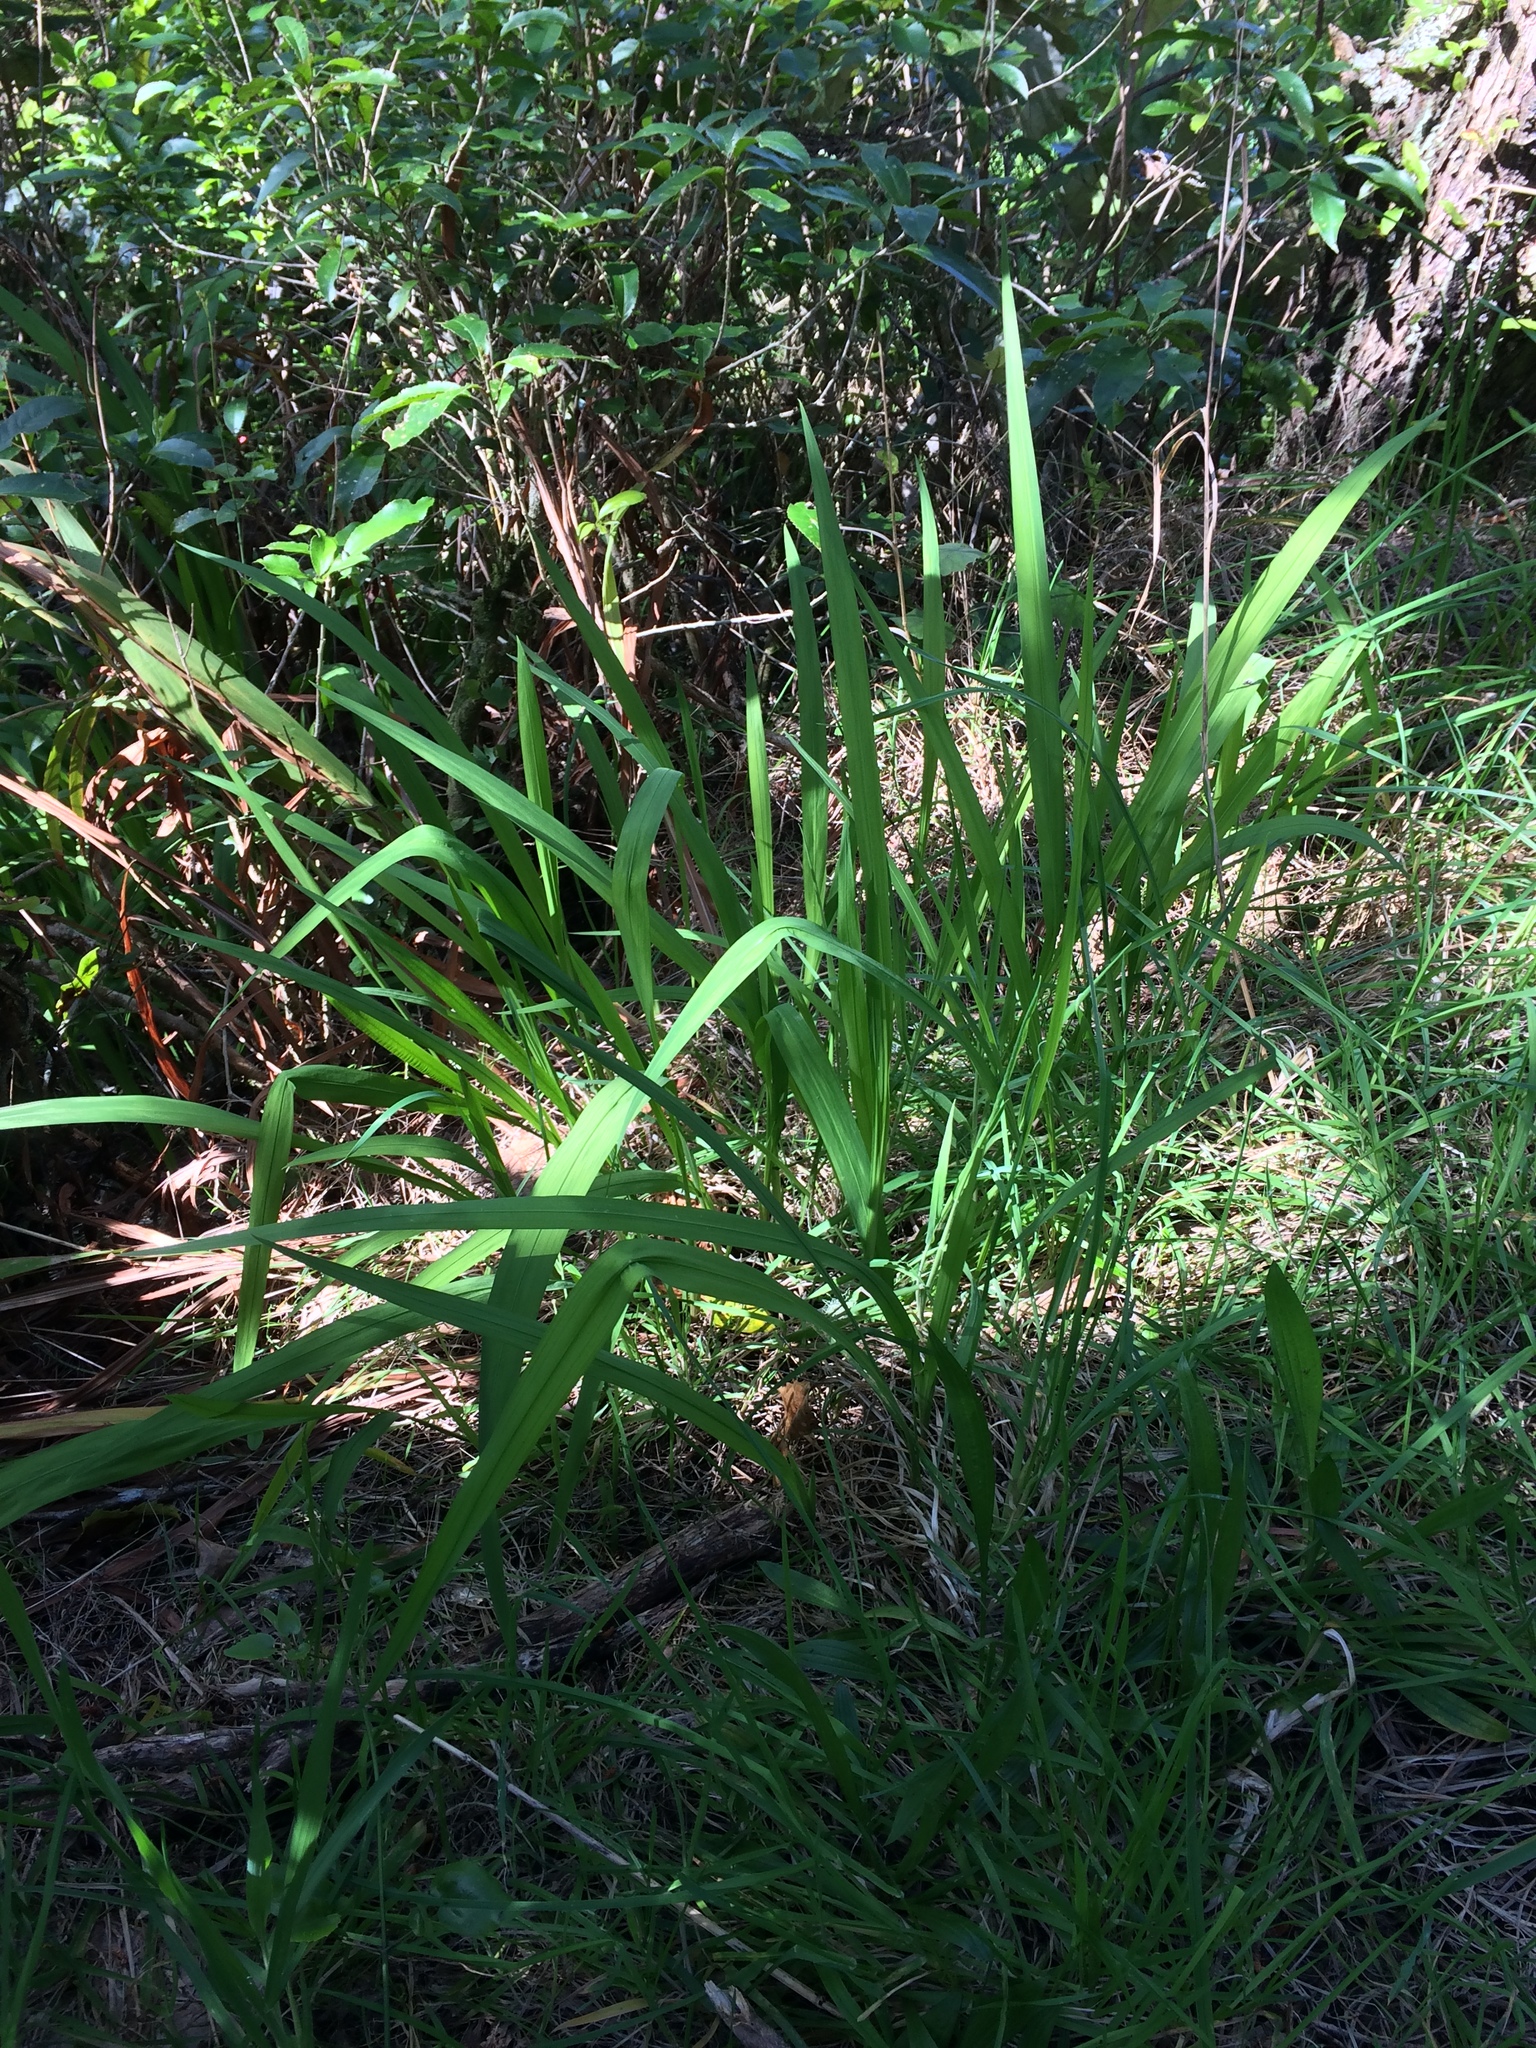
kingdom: Plantae
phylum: Tracheophyta
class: Liliopsida
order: Asparagales
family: Iridaceae
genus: Crocosmia
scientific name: Crocosmia crocosmiiflora
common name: Montbretia
